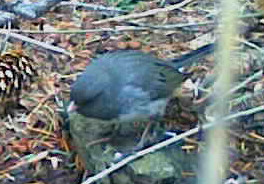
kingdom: Animalia
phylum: Chordata
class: Aves
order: Passeriformes
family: Passerellidae
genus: Junco
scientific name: Junco hyemalis
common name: Dark-eyed junco
